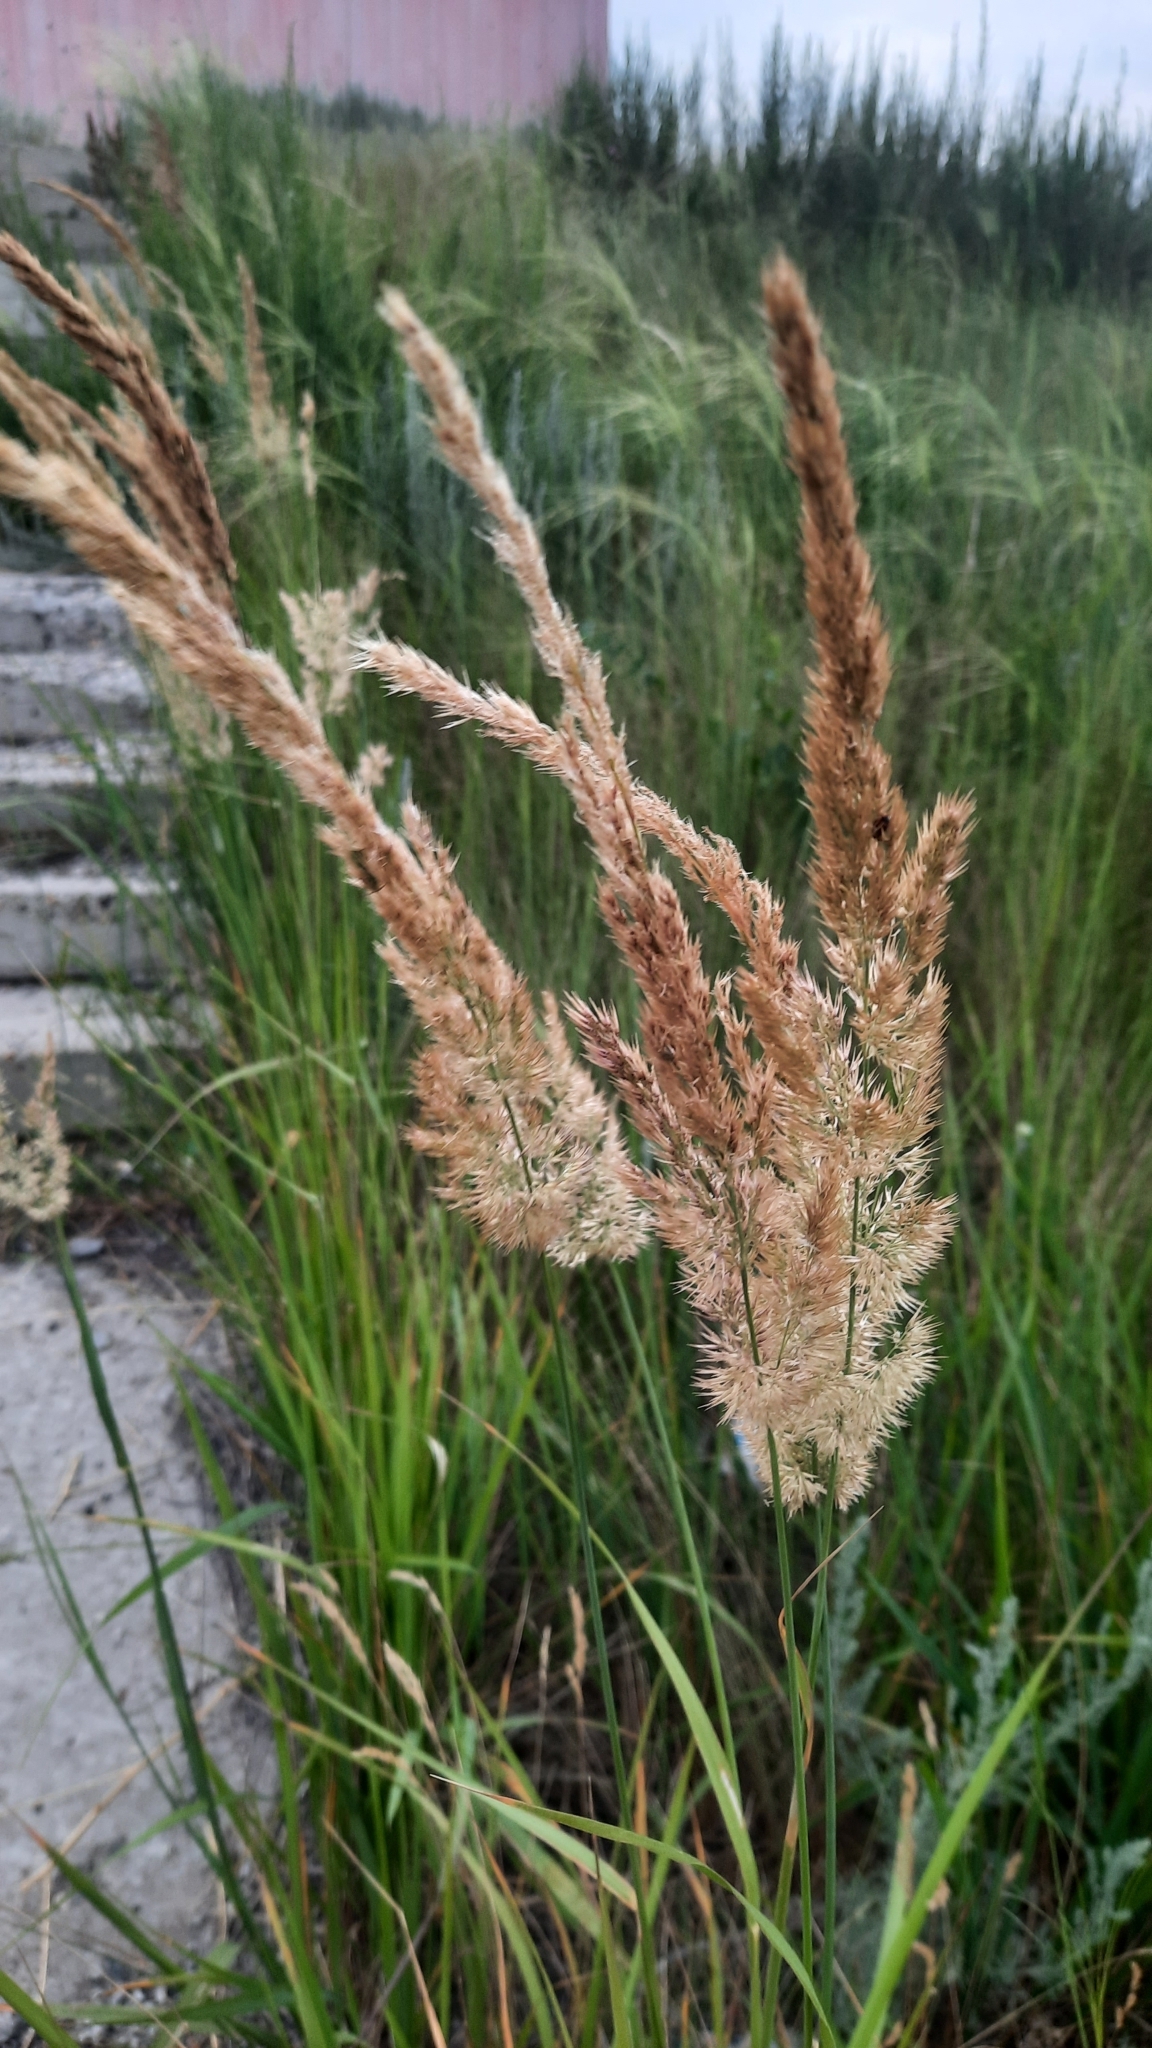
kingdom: Plantae
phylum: Tracheophyta
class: Liliopsida
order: Poales
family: Poaceae
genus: Calamagrostis
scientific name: Calamagrostis epigejos
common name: Wood small-reed
